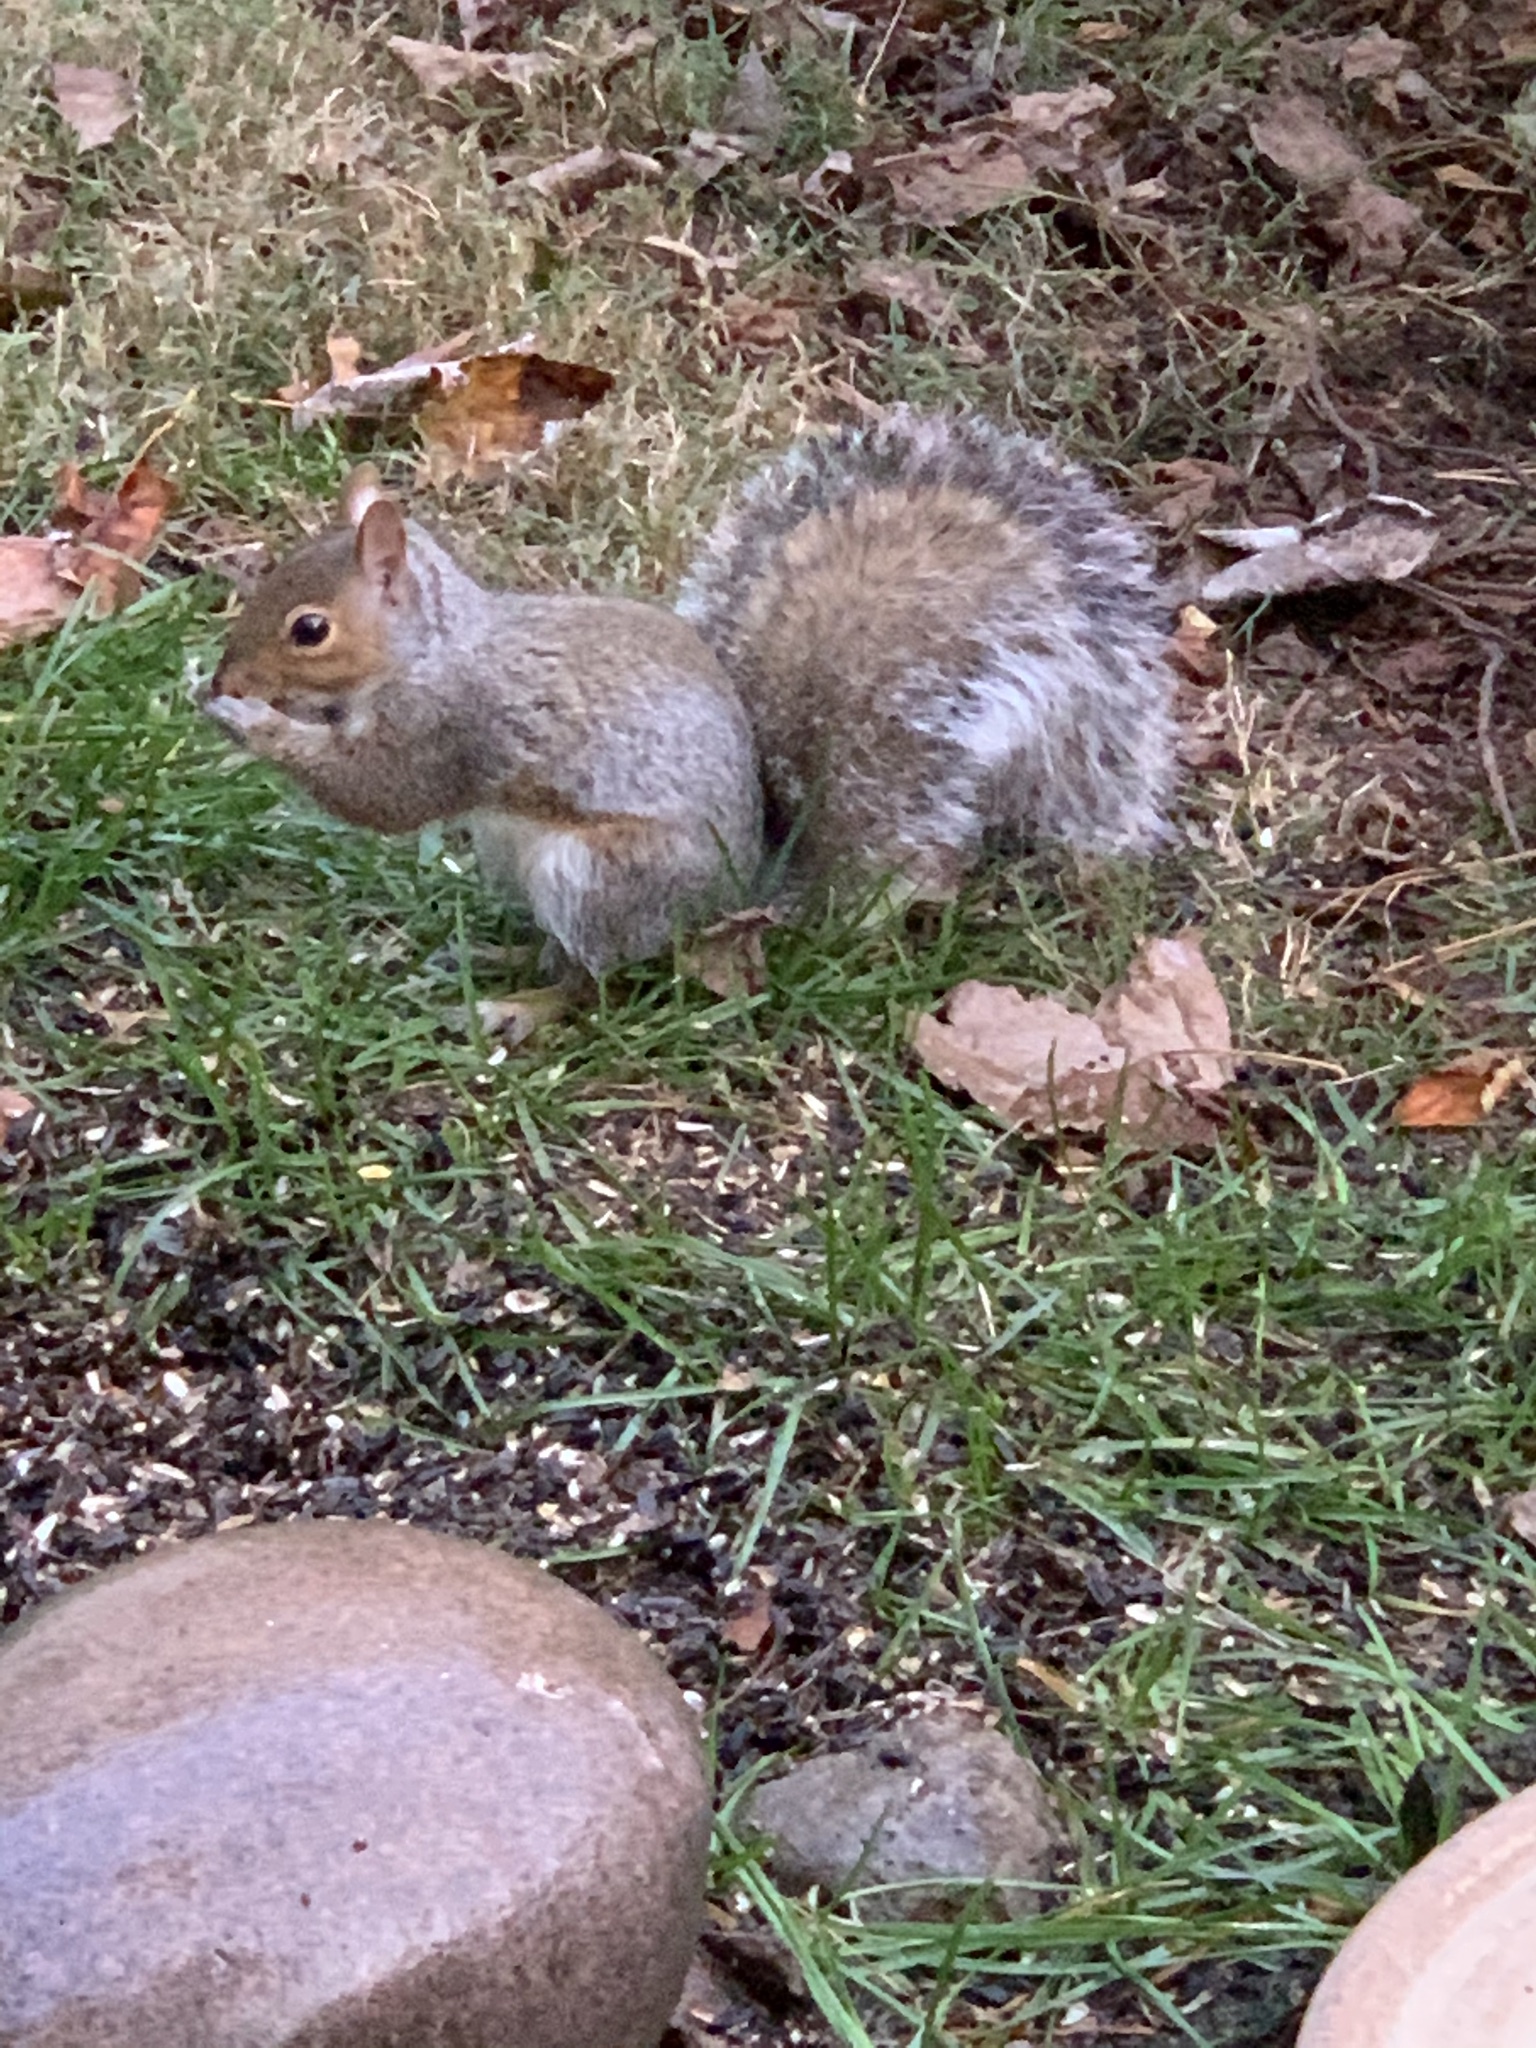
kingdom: Animalia
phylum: Chordata
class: Mammalia
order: Rodentia
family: Sciuridae
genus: Sciurus
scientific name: Sciurus carolinensis
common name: Eastern gray squirrel
